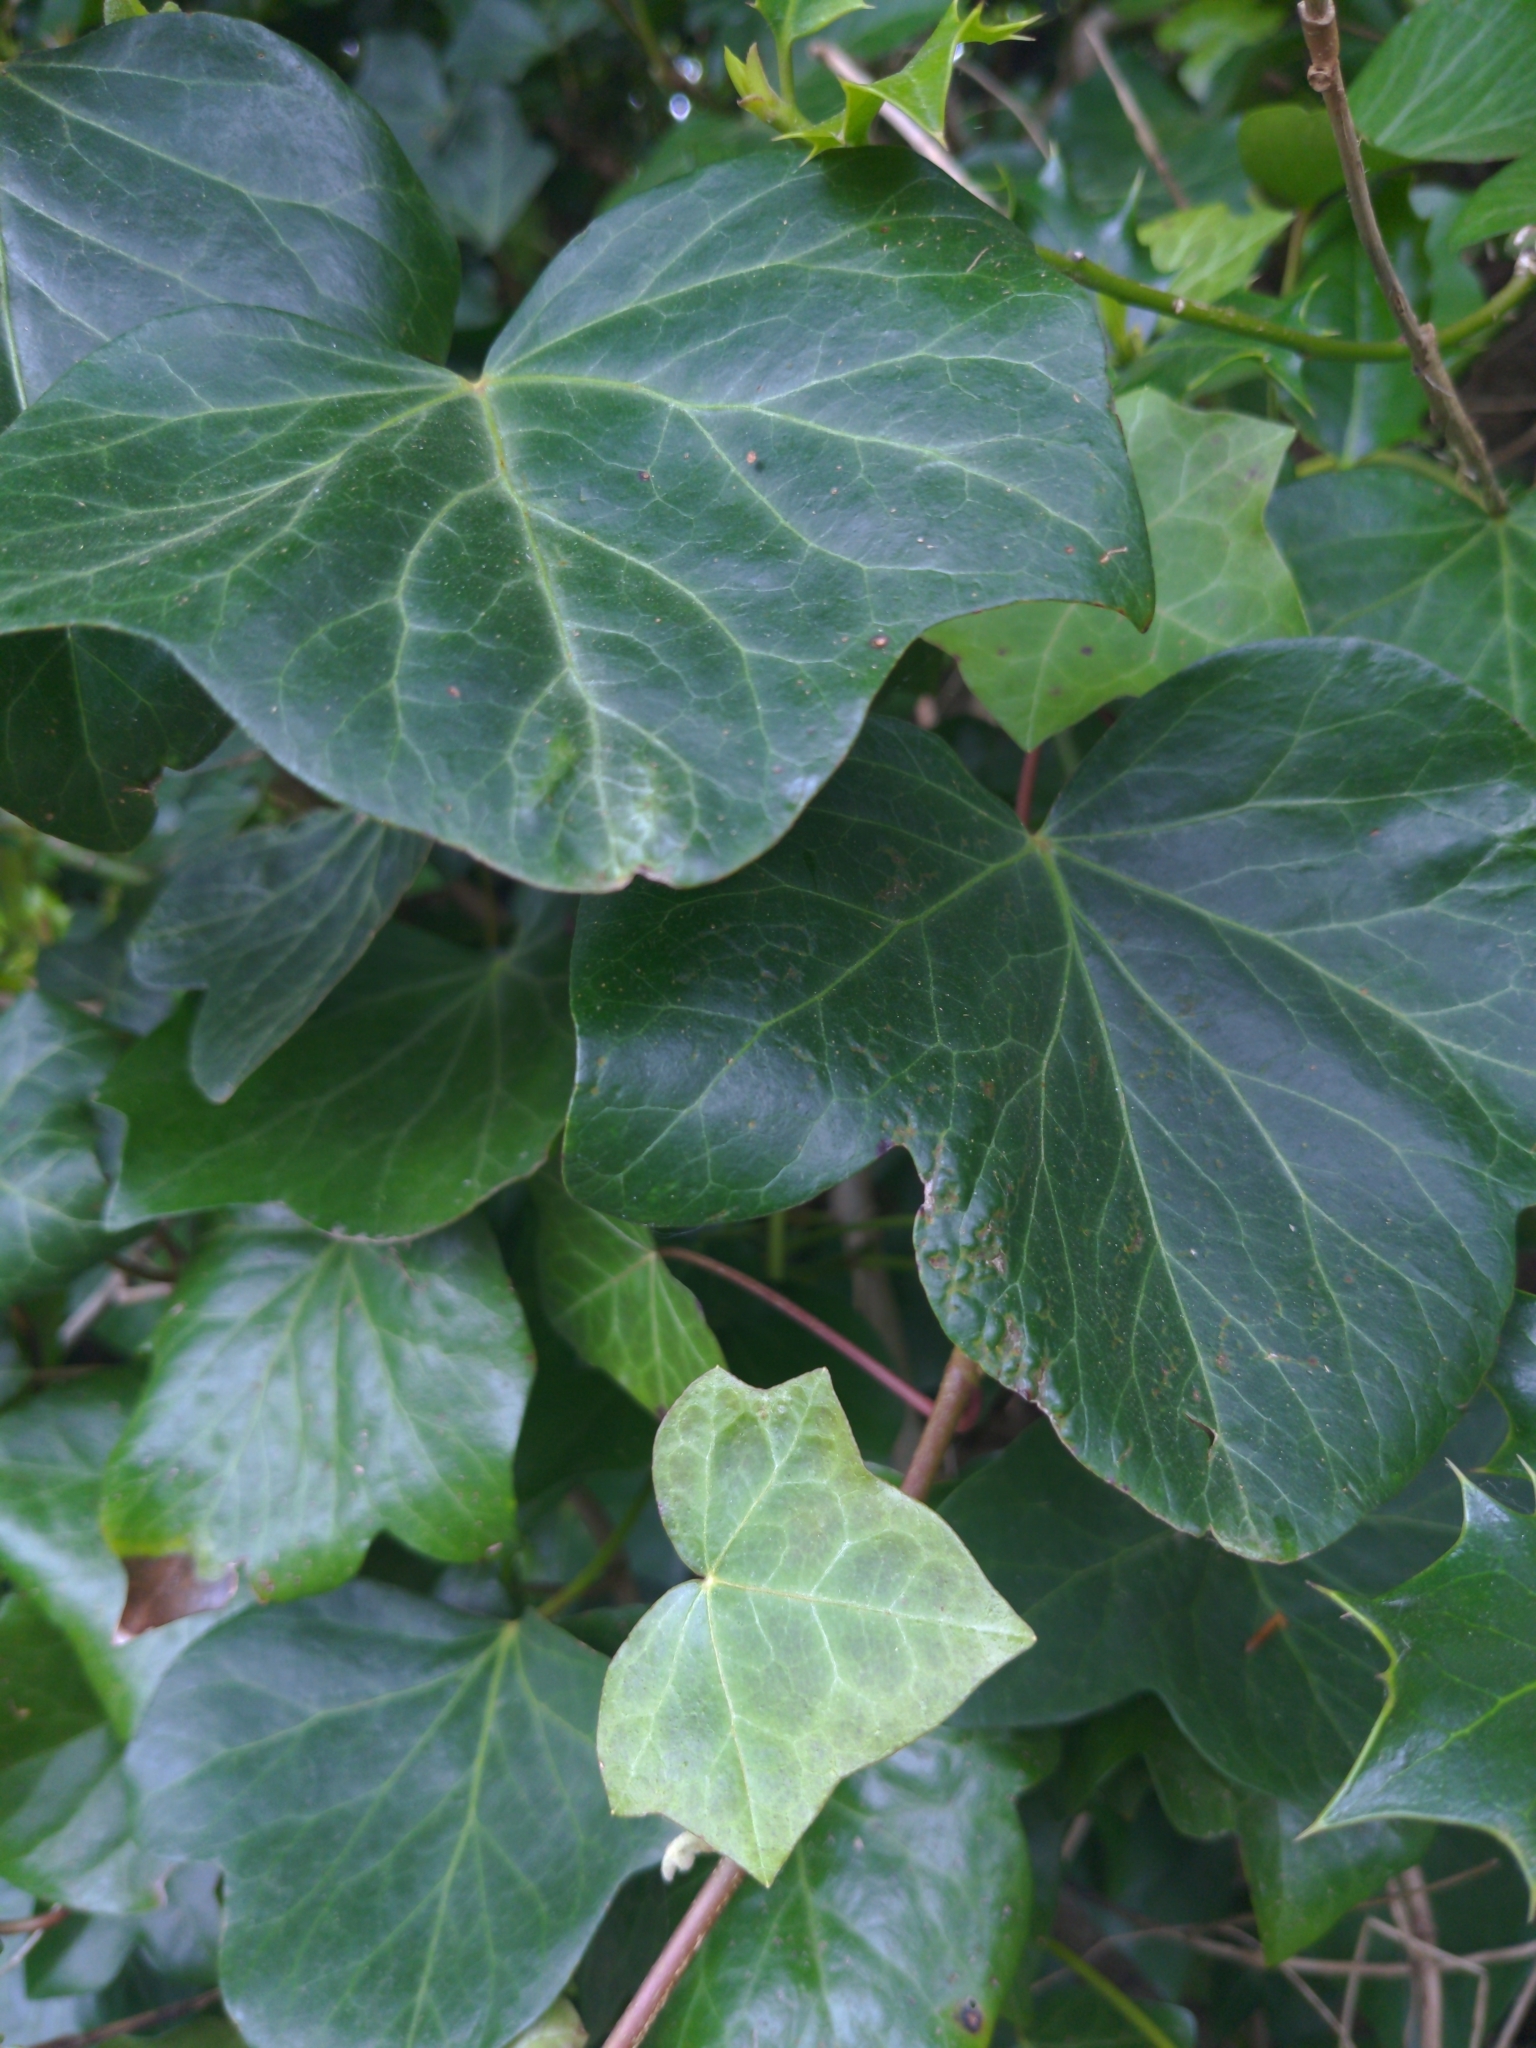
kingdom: Plantae
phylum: Tracheophyta
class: Magnoliopsida
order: Apiales
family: Araliaceae
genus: Hedera
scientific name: Hedera helix
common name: Ivy
